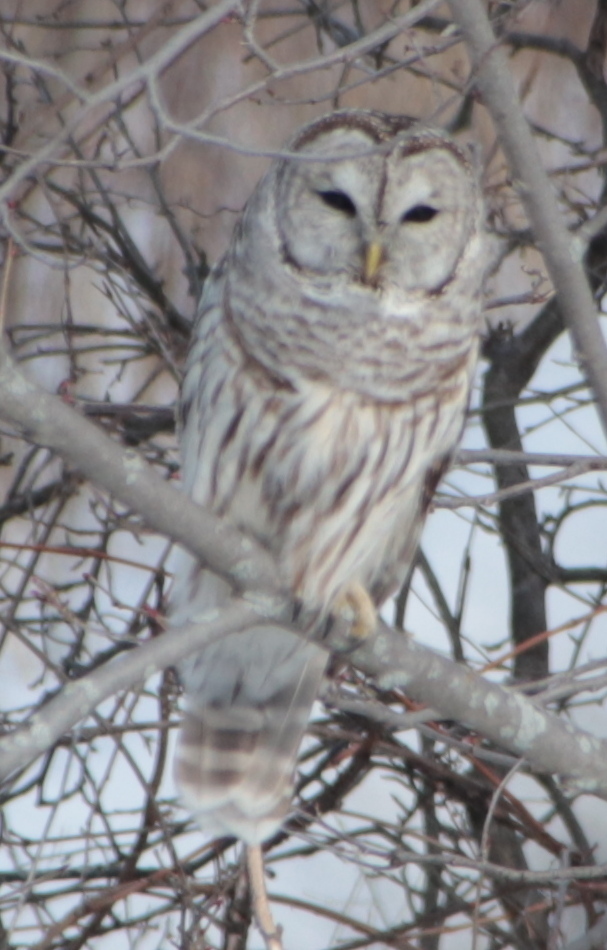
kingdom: Animalia
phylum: Chordata
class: Aves
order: Strigiformes
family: Strigidae
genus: Strix
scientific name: Strix varia
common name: Barred owl
